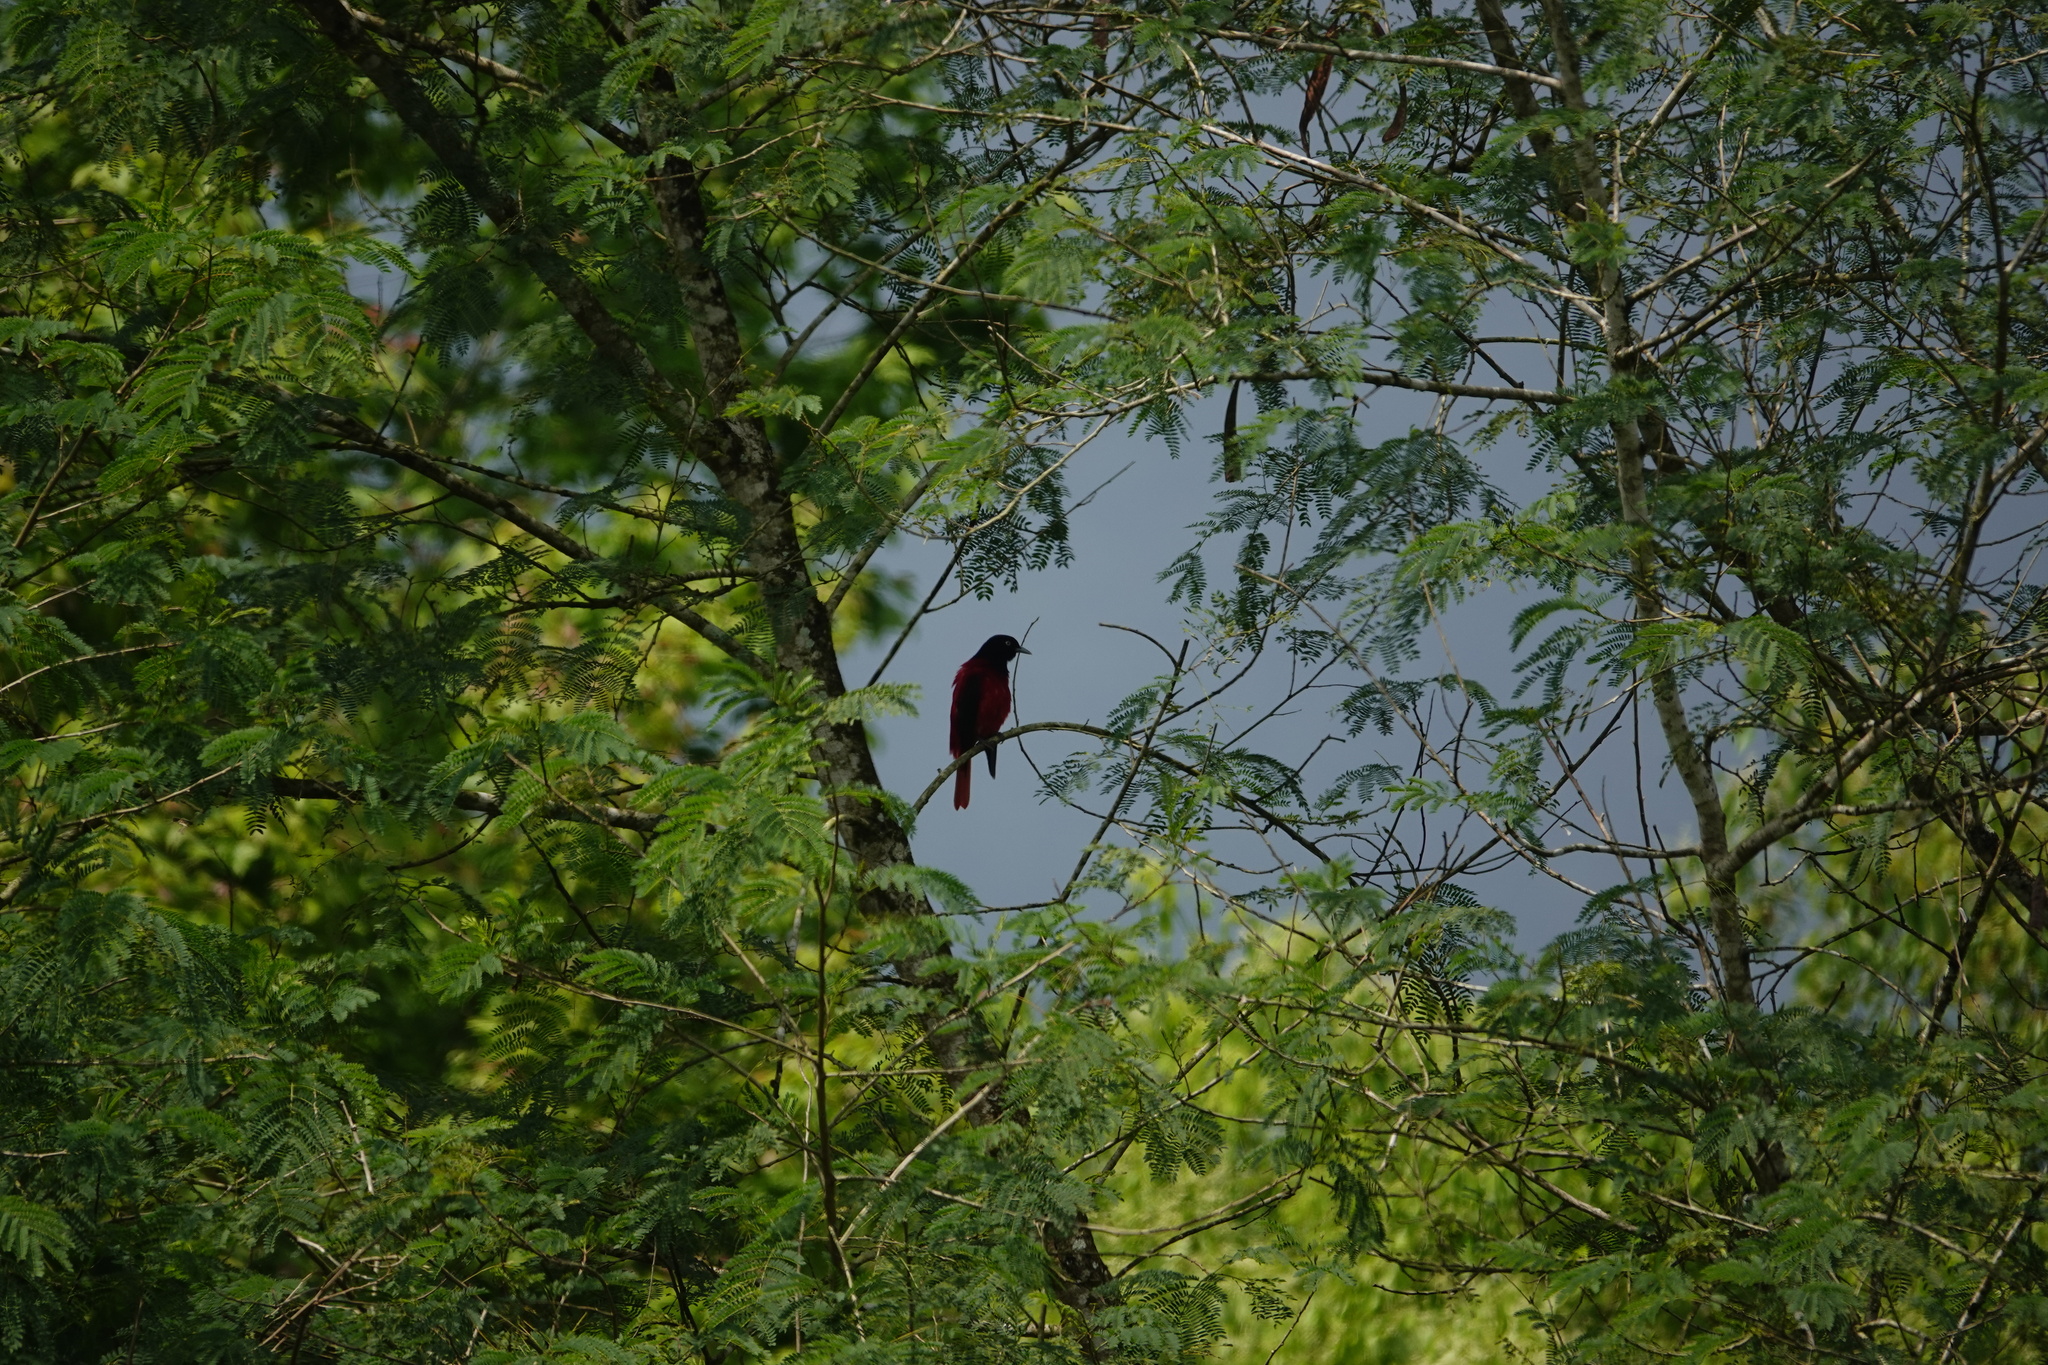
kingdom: Animalia
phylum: Chordata
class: Aves
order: Passeriformes
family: Oriolidae
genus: Oriolus
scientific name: Oriolus traillii
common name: Maroon oriole
